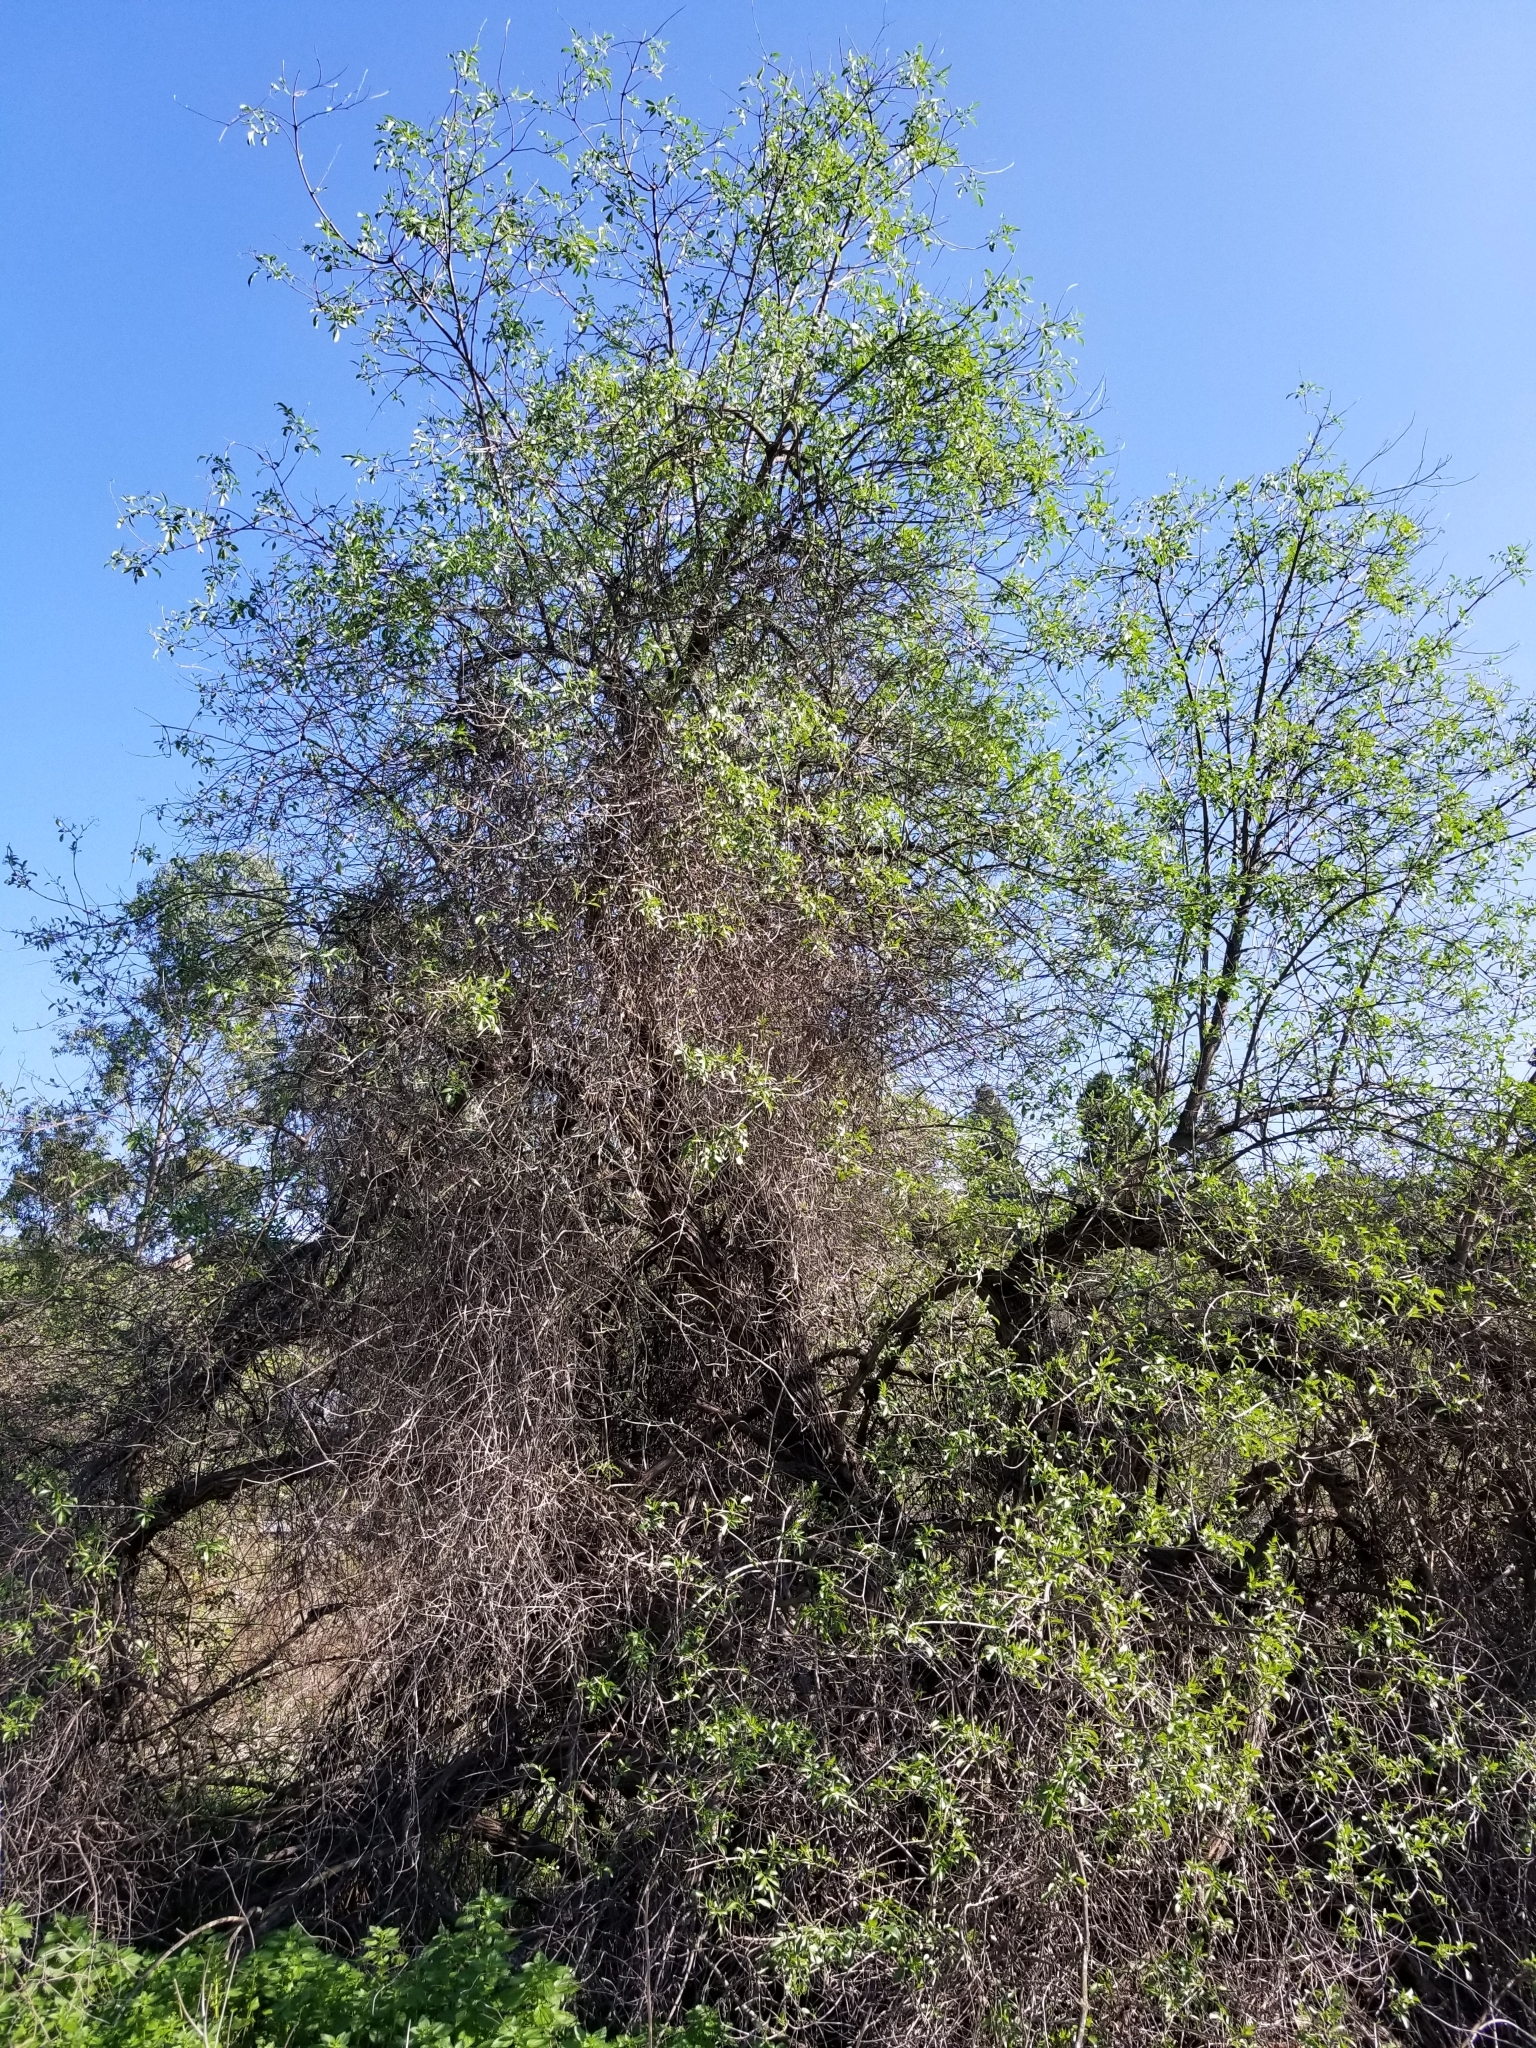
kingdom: Plantae
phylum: Tracheophyta
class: Magnoliopsida
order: Dipsacales
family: Viburnaceae
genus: Sambucus
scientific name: Sambucus cerulea
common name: Blue elder
